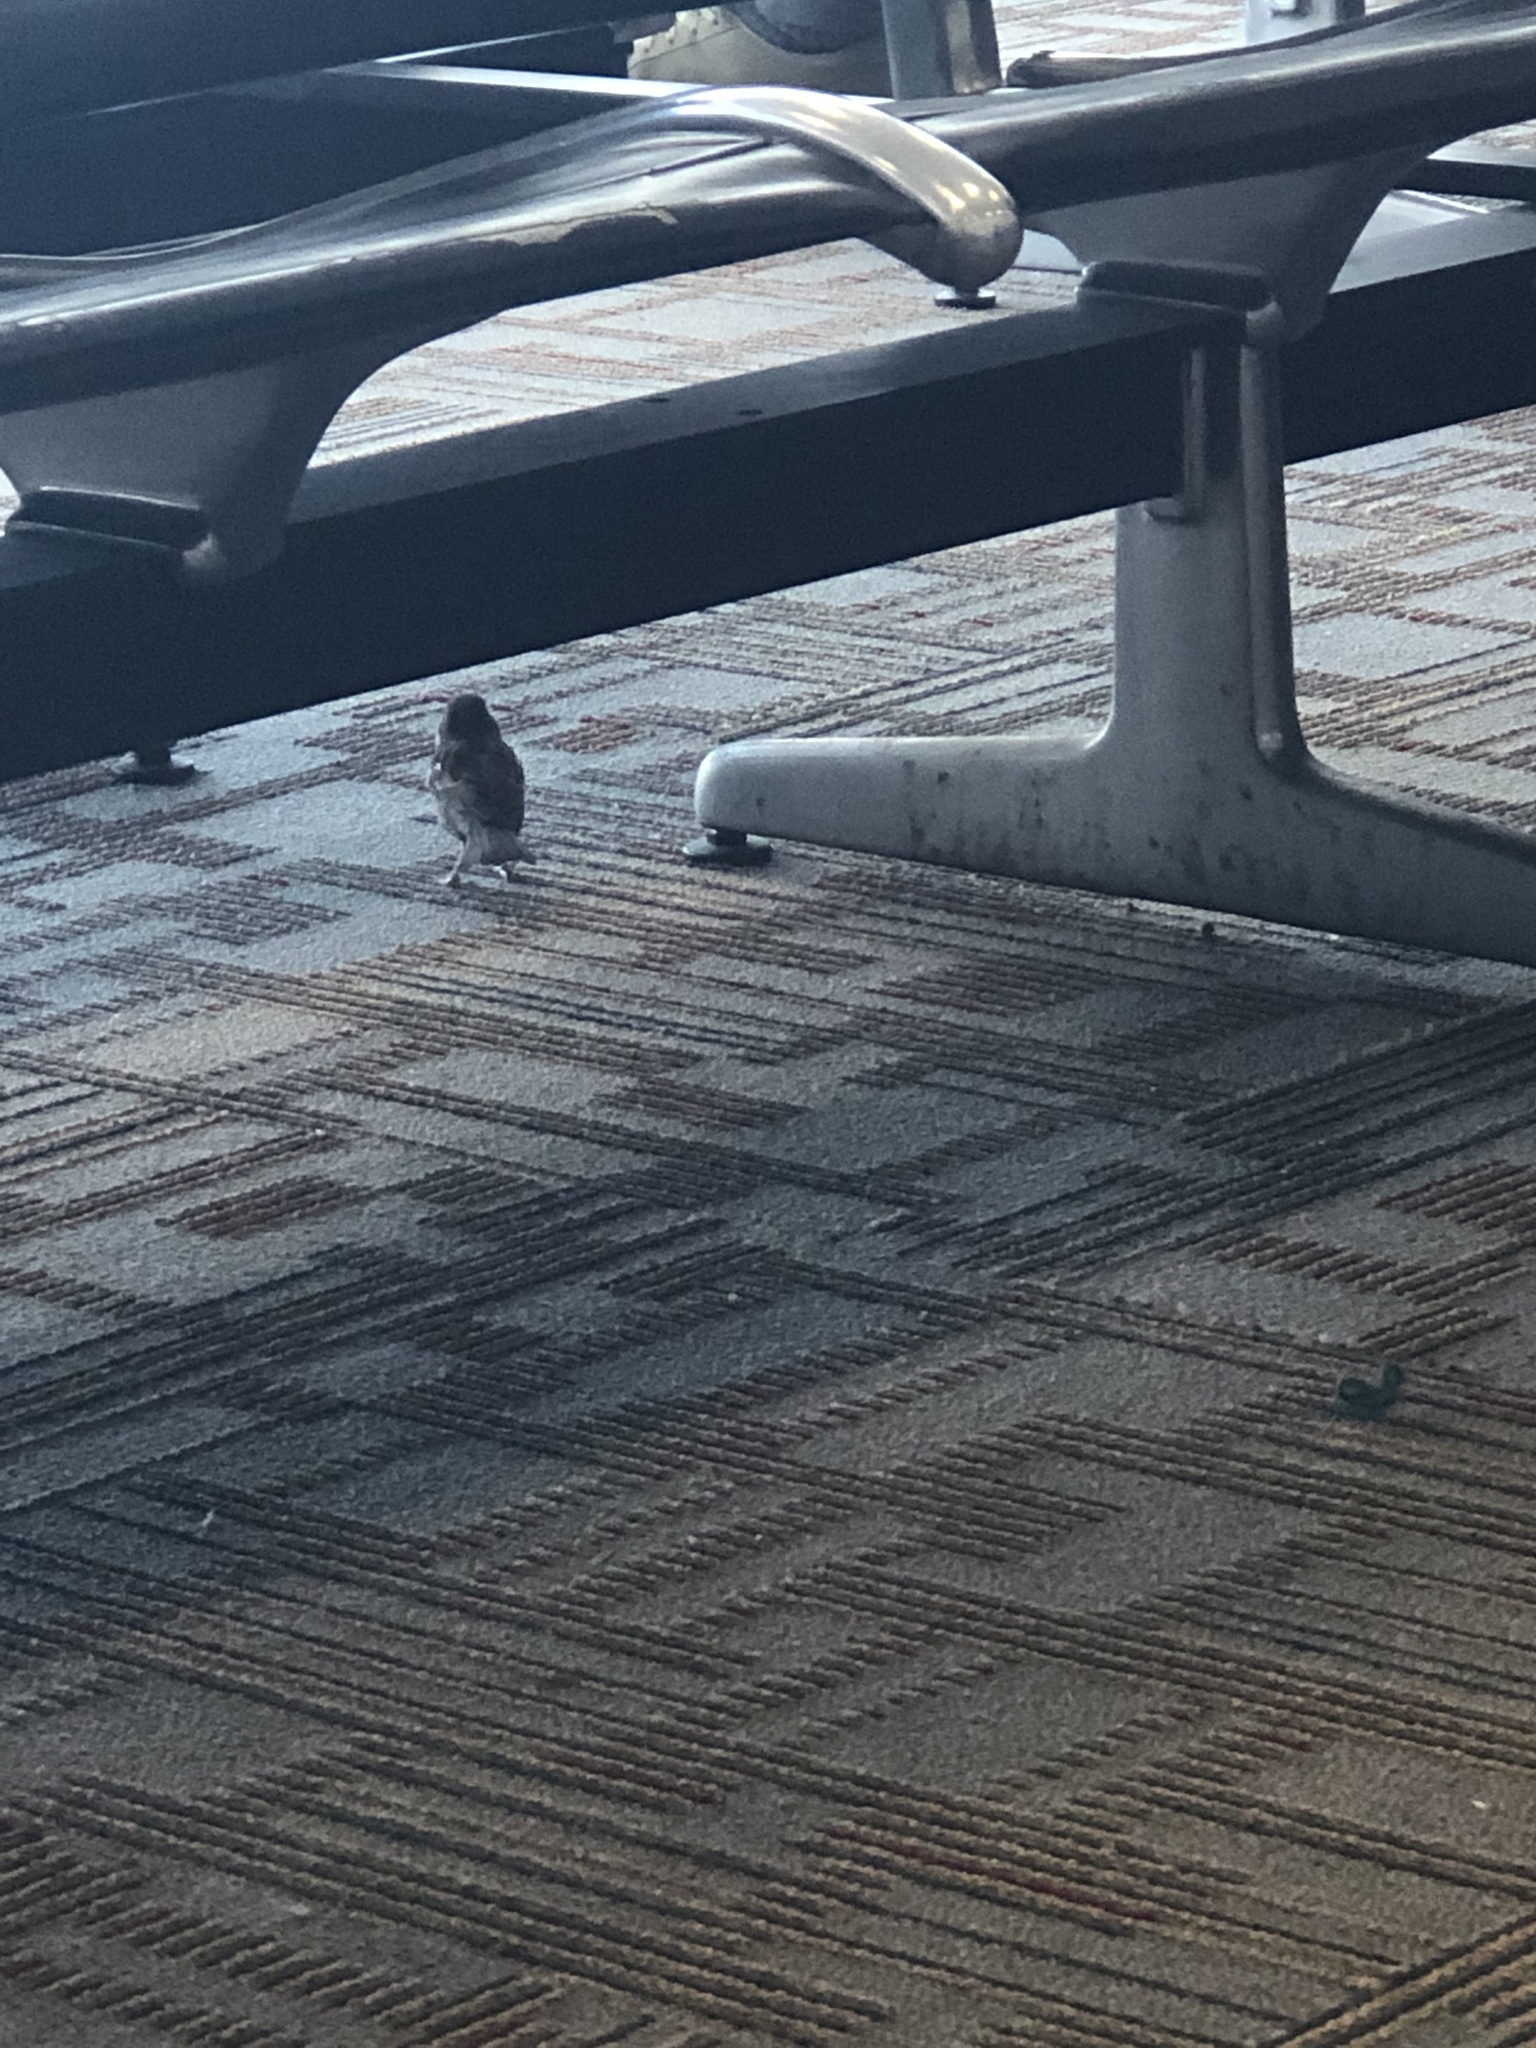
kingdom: Animalia
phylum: Chordata
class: Aves
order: Passeriformes
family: Passeridae
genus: Passer
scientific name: Passer domesticus
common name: House sparrow
